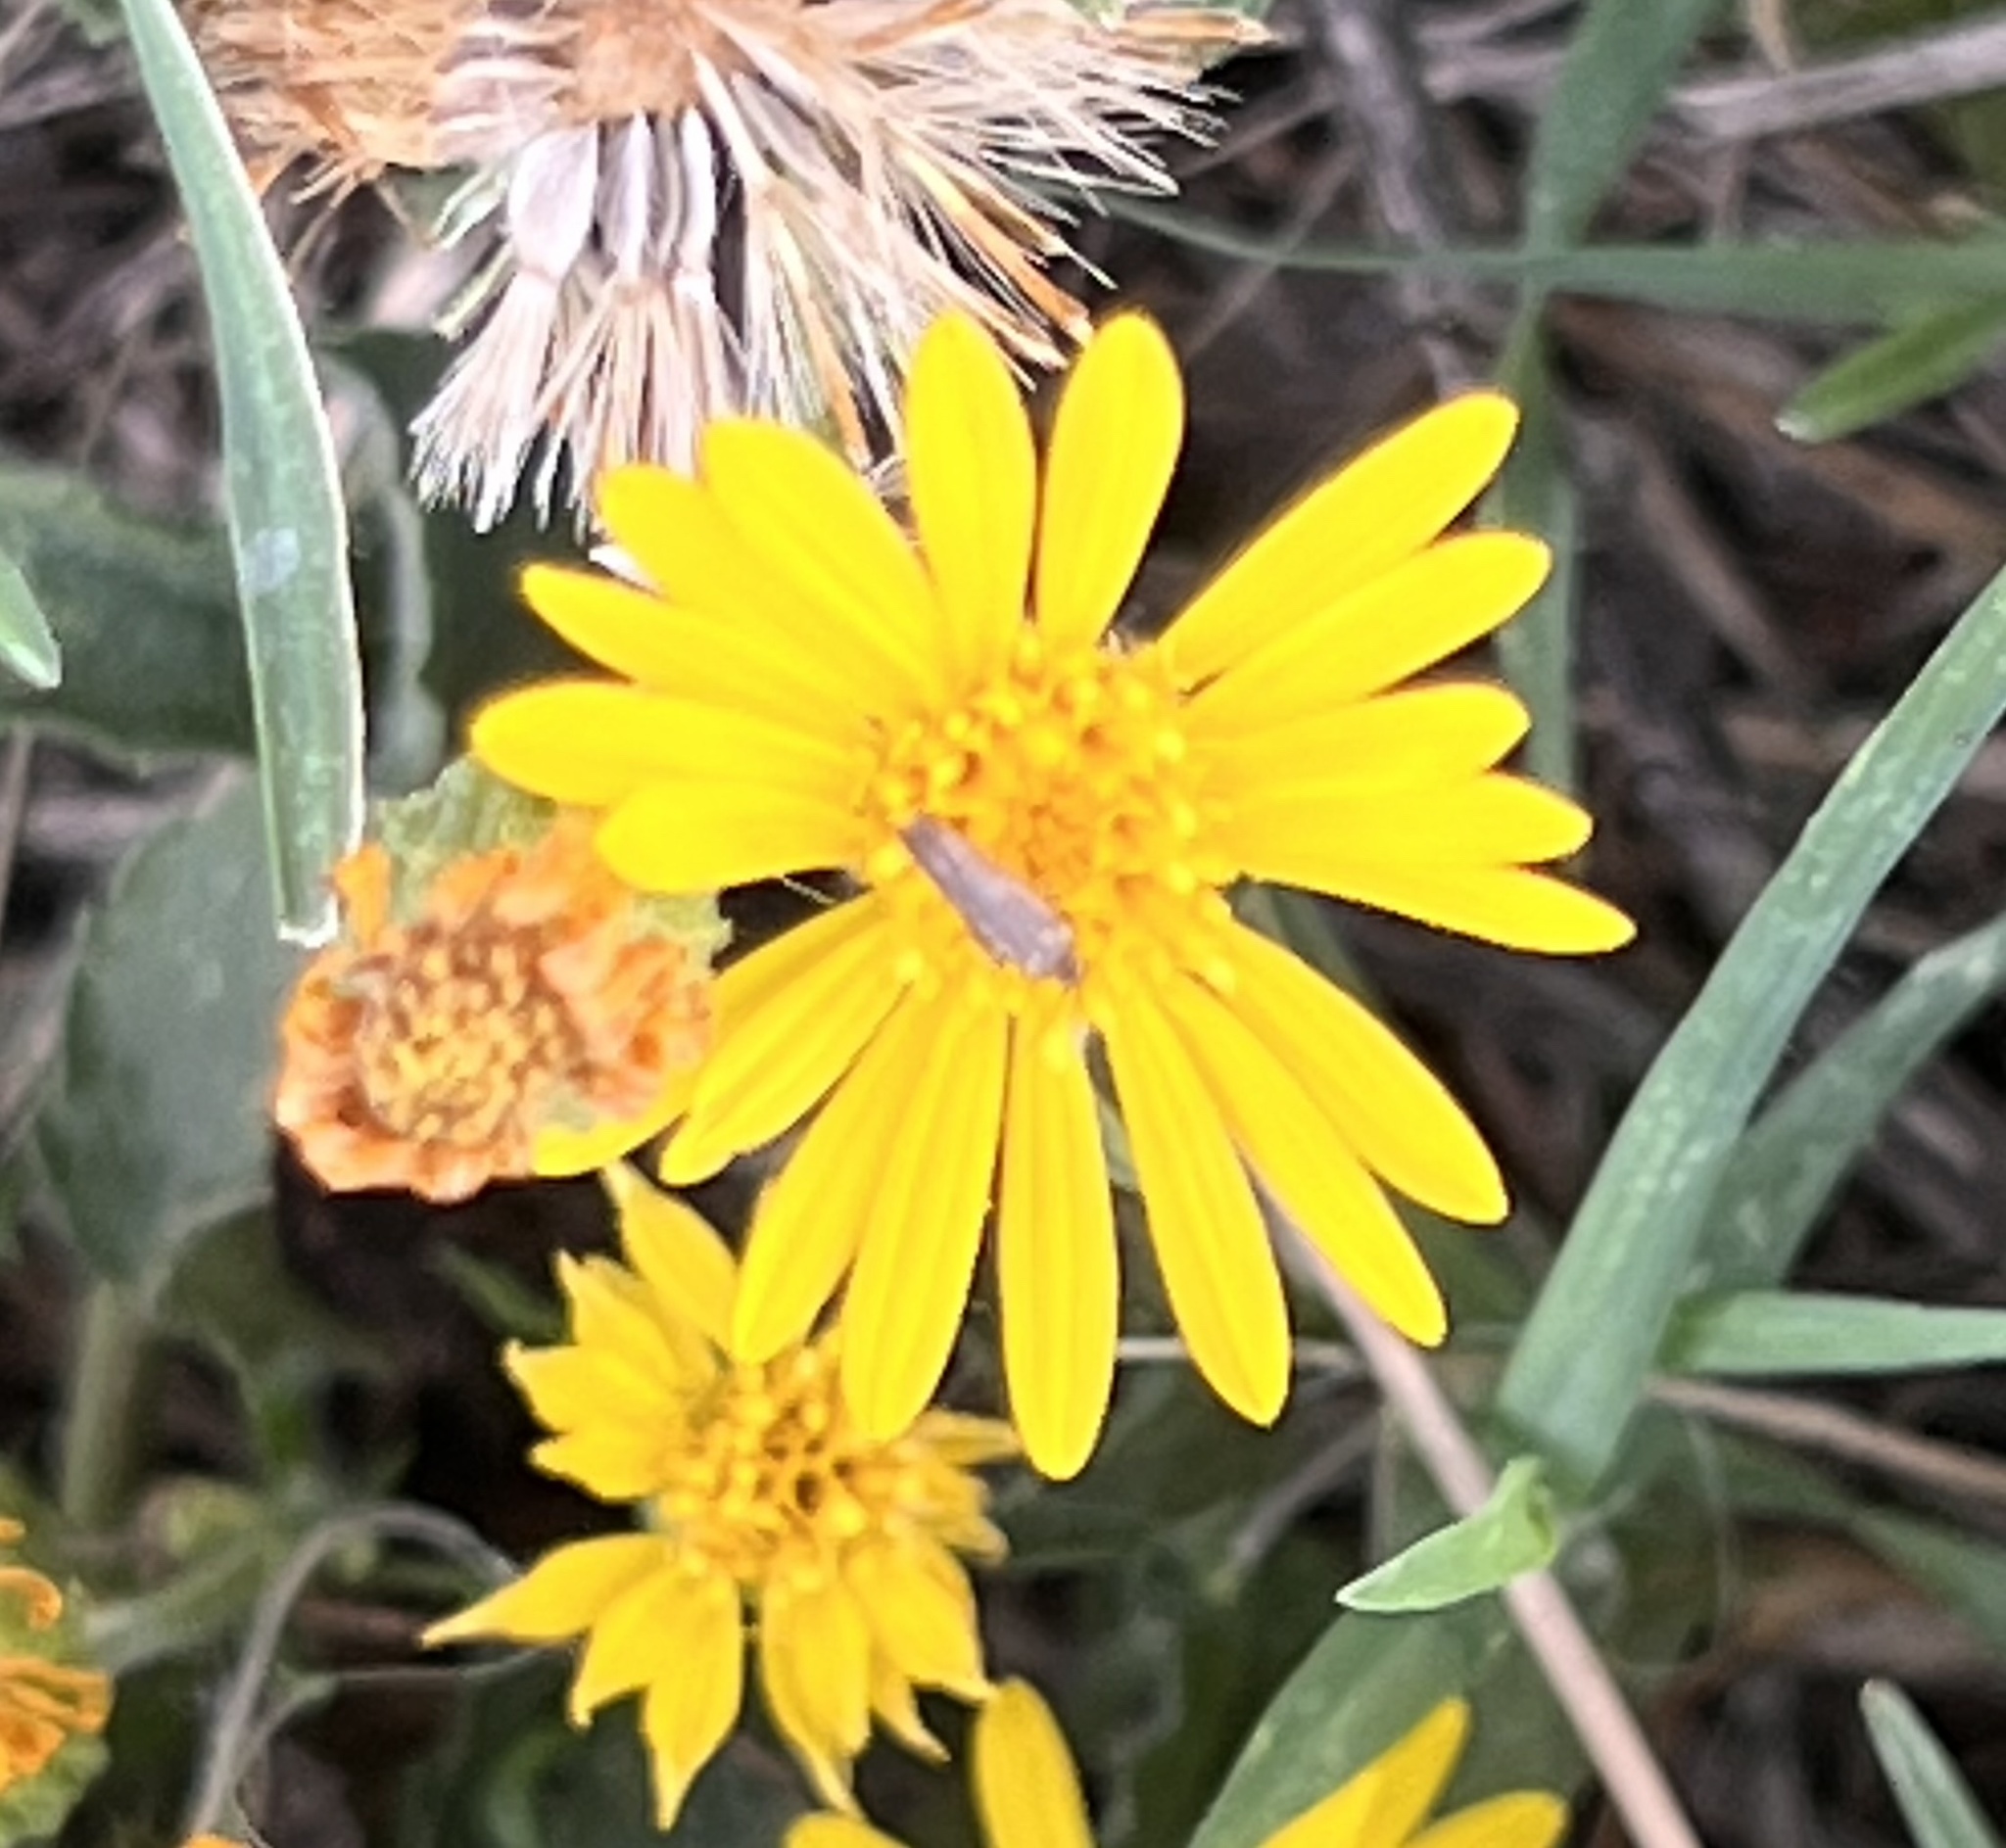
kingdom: Plantae
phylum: Tracheophyta
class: Magnoliopsida
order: Asterales
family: Asteraceae
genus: Heterotheca
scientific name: Heterotheca subaxillaris
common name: Camphorweed
